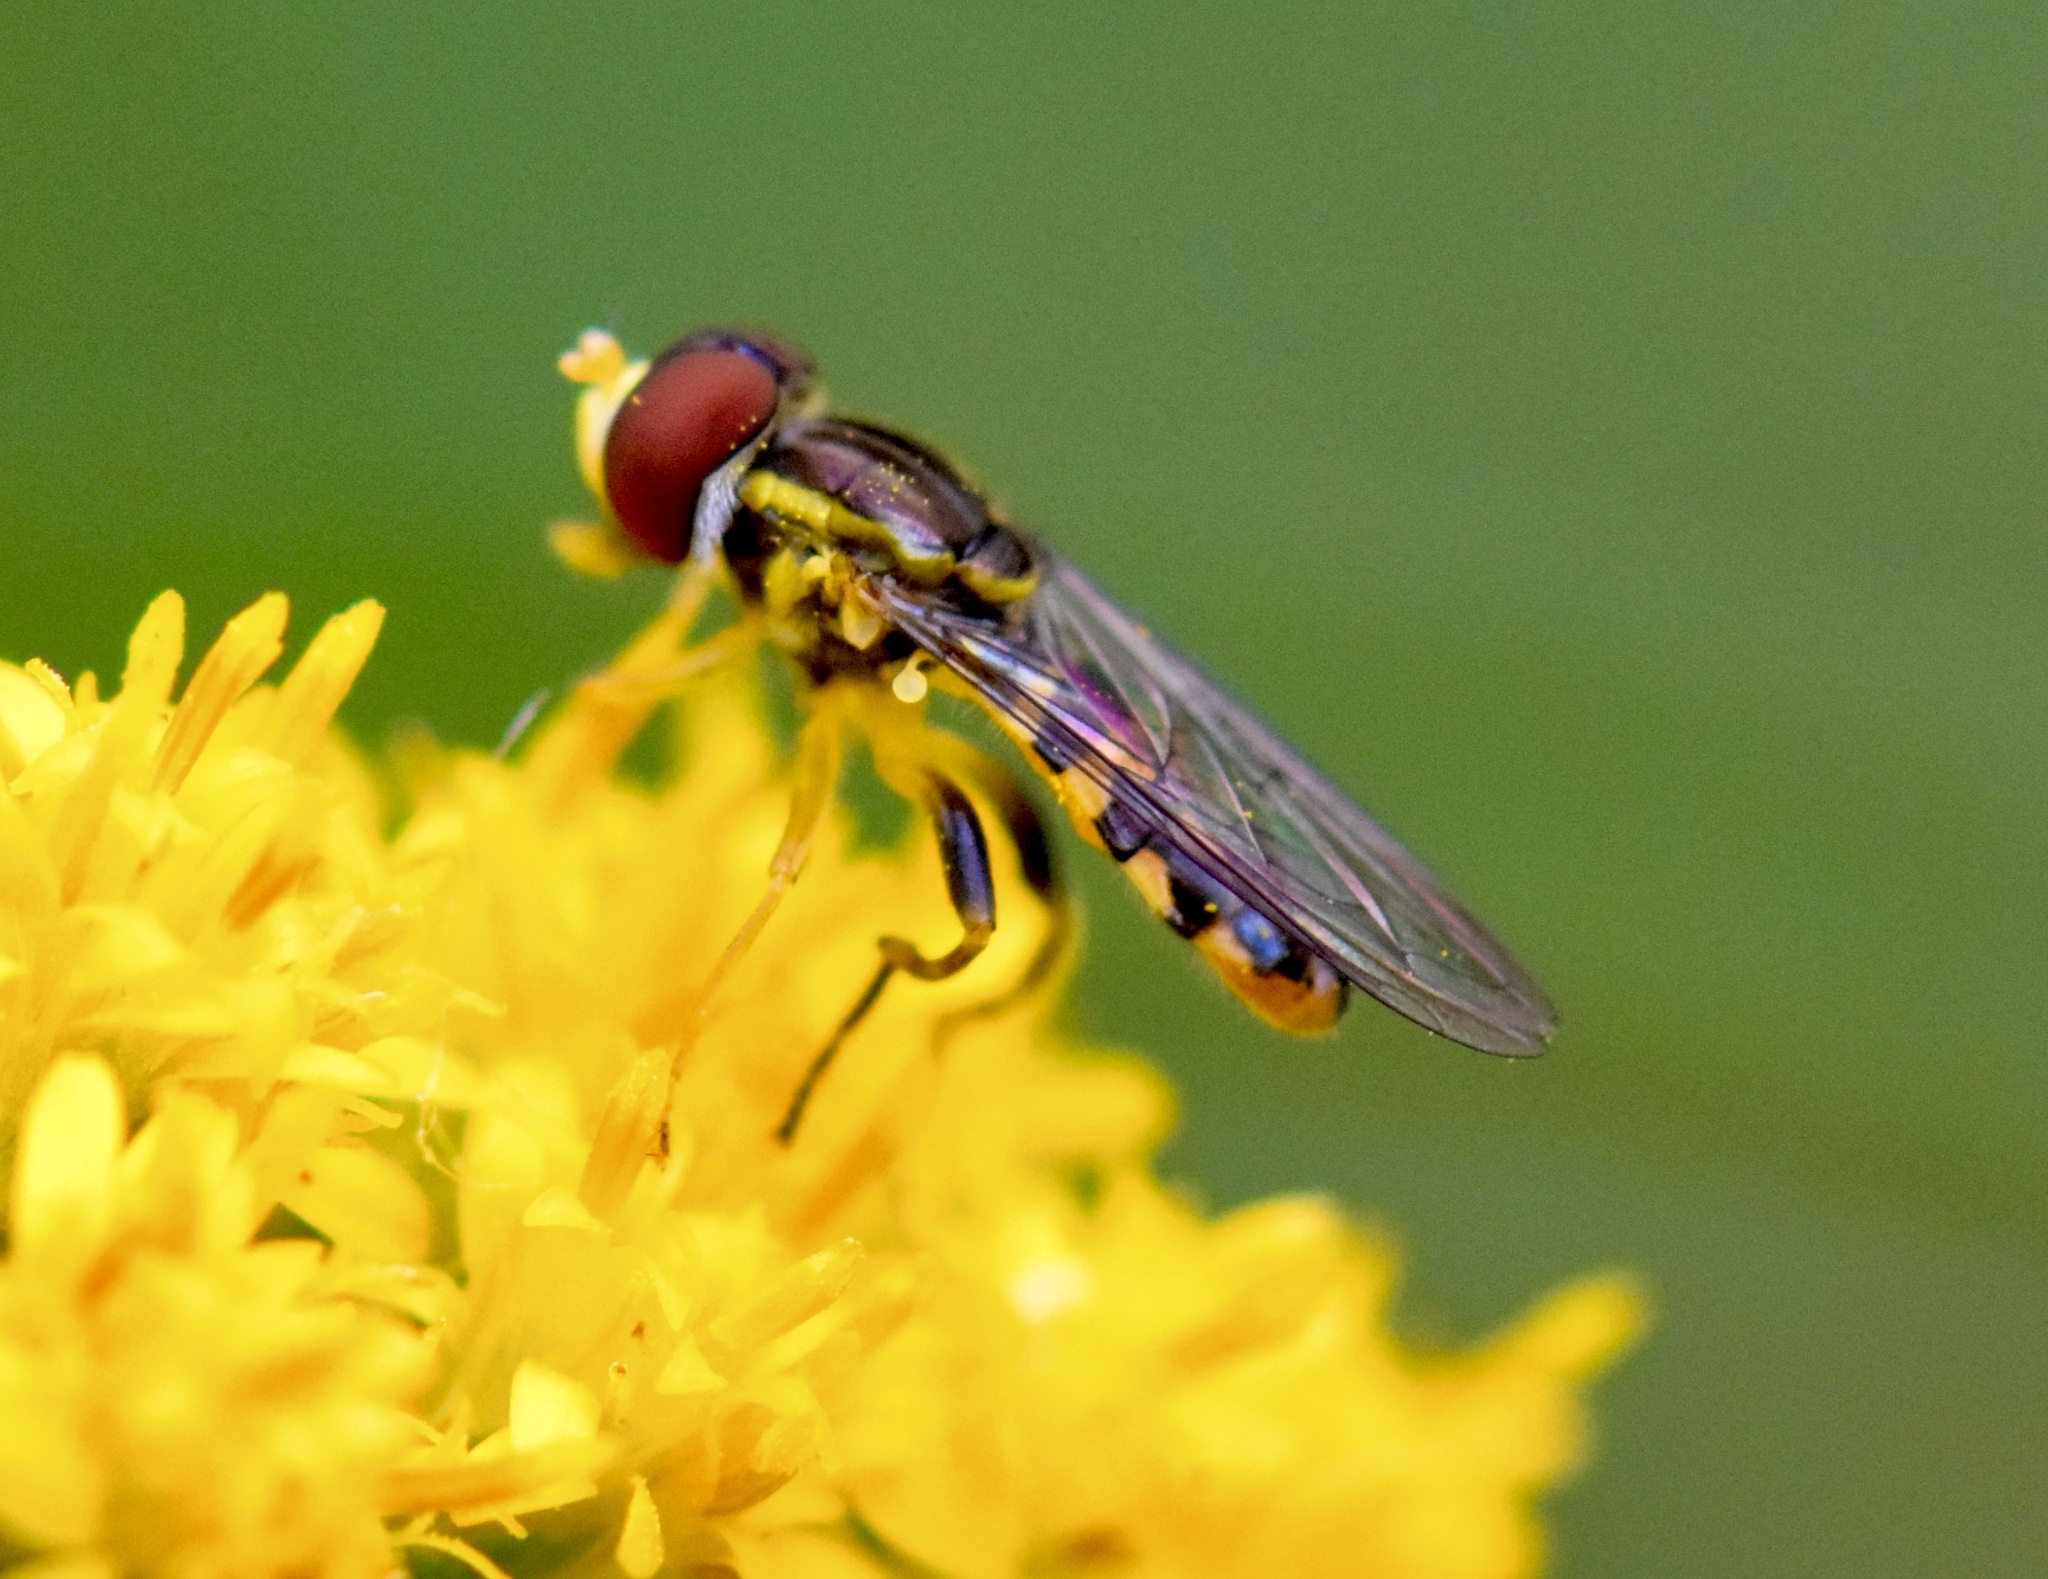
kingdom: Animalia
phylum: Arthropoda
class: Insecta
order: Diptera
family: Syrphidae
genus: Toxomerus
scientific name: Toxomerus geminatus
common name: Eastern calligrapher
